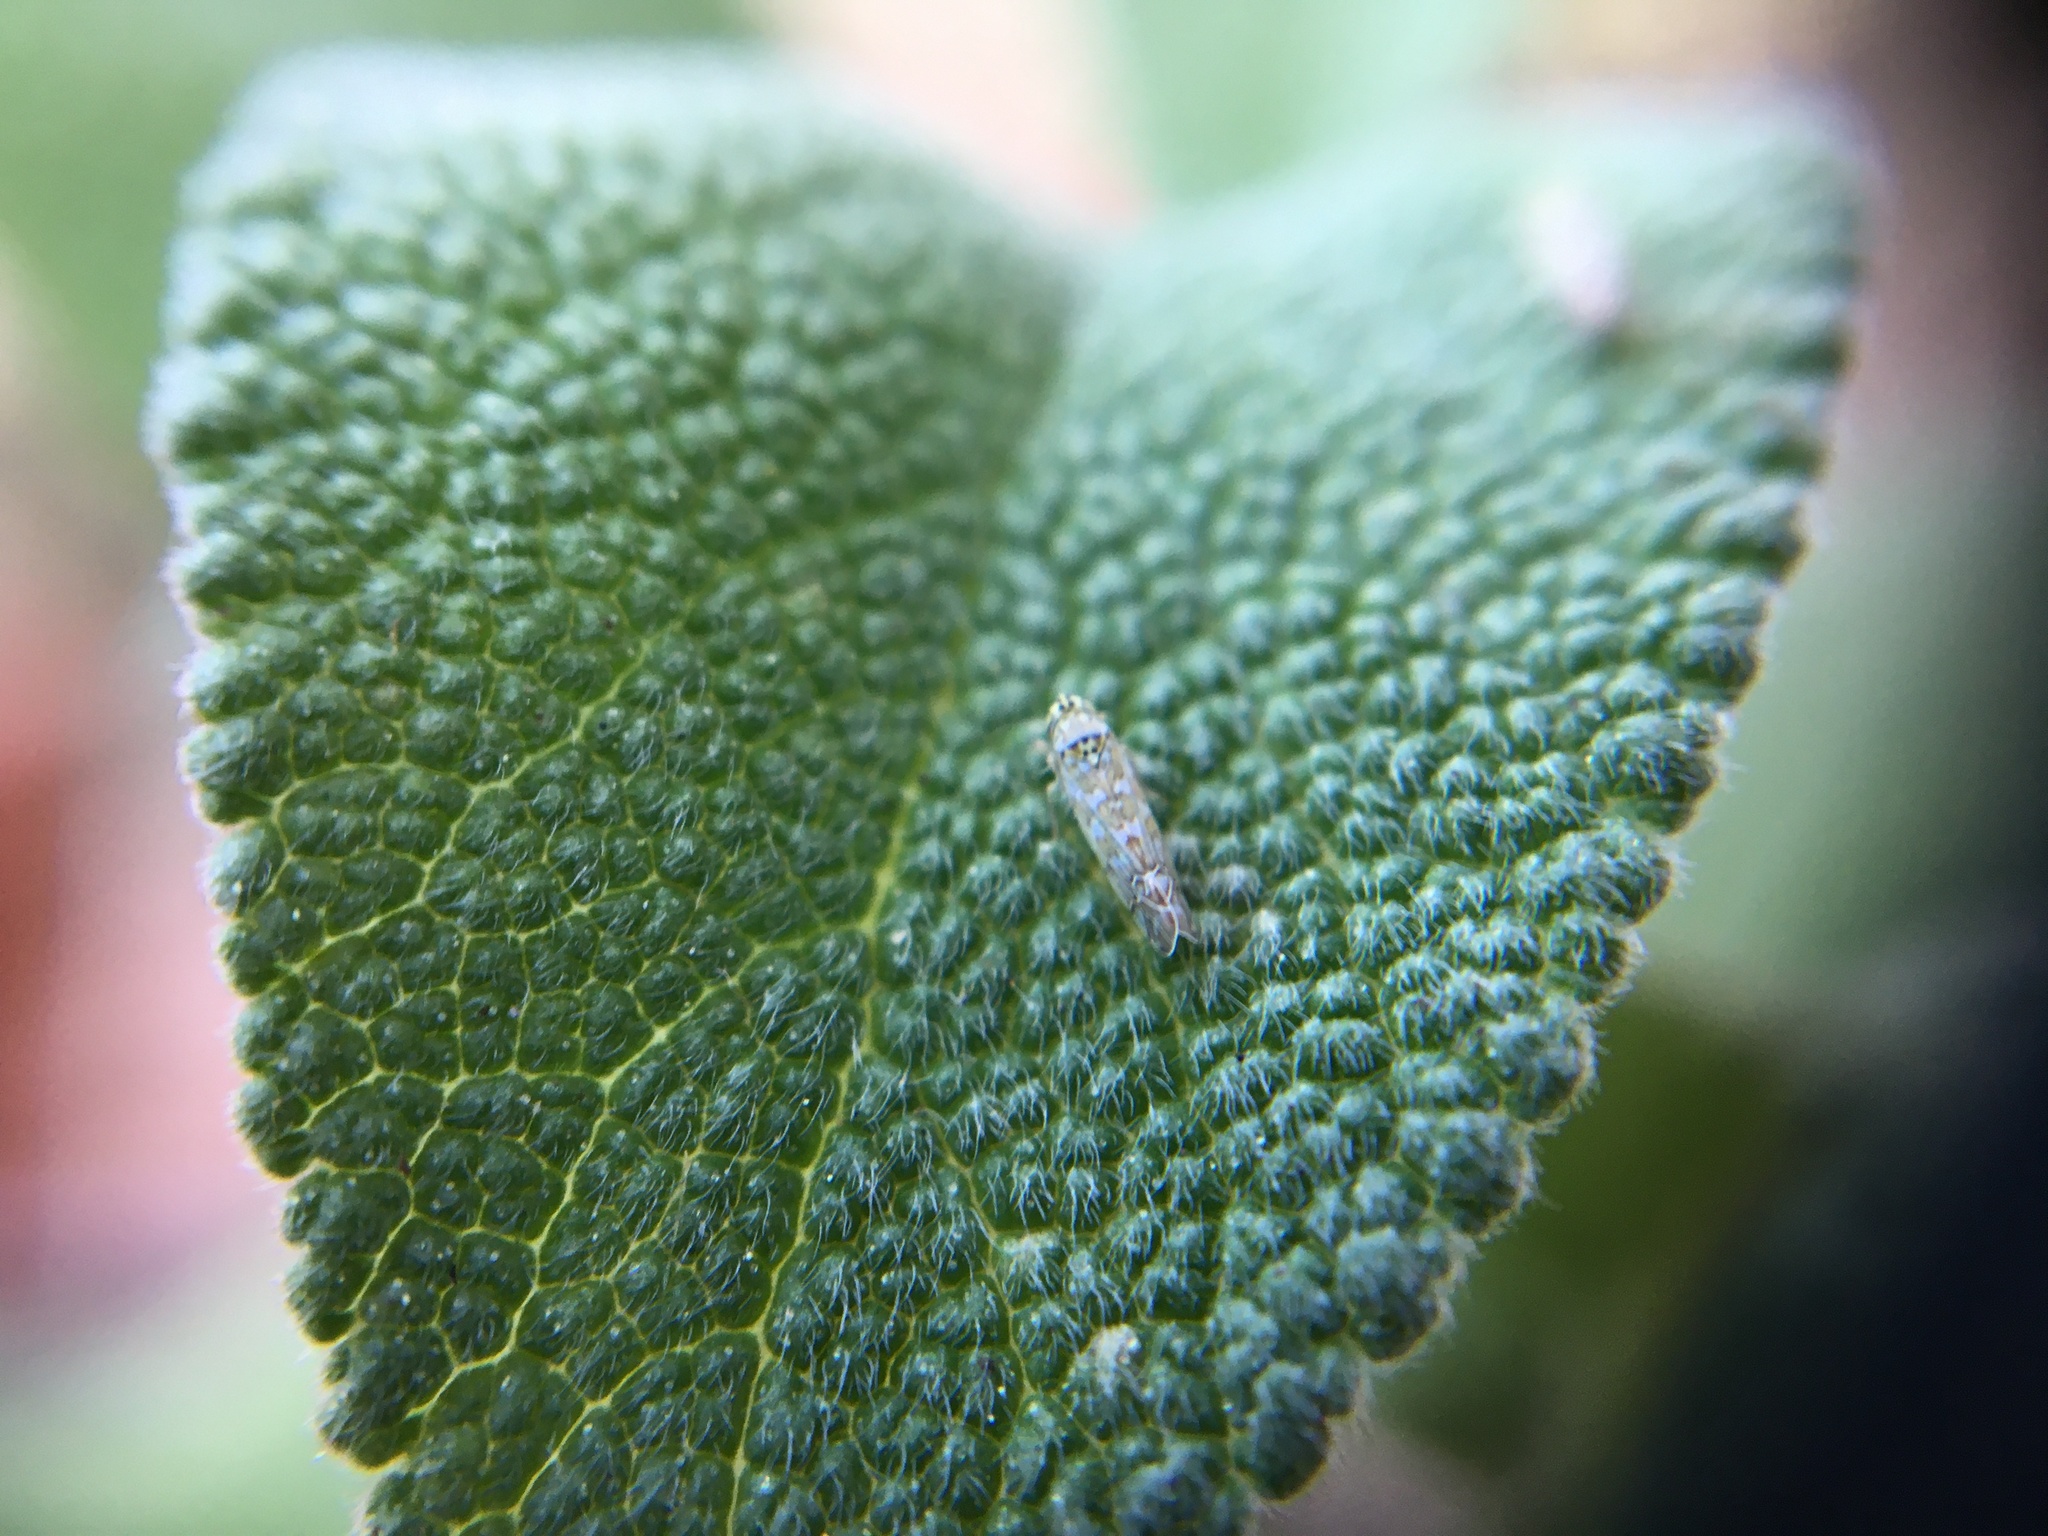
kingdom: Animalia
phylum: Arthropoda
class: Insecta
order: Hemiptera
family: Cicadellidae
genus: Eupteryx
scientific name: Eupteryx decemnotata
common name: Ligurian leafhopper
